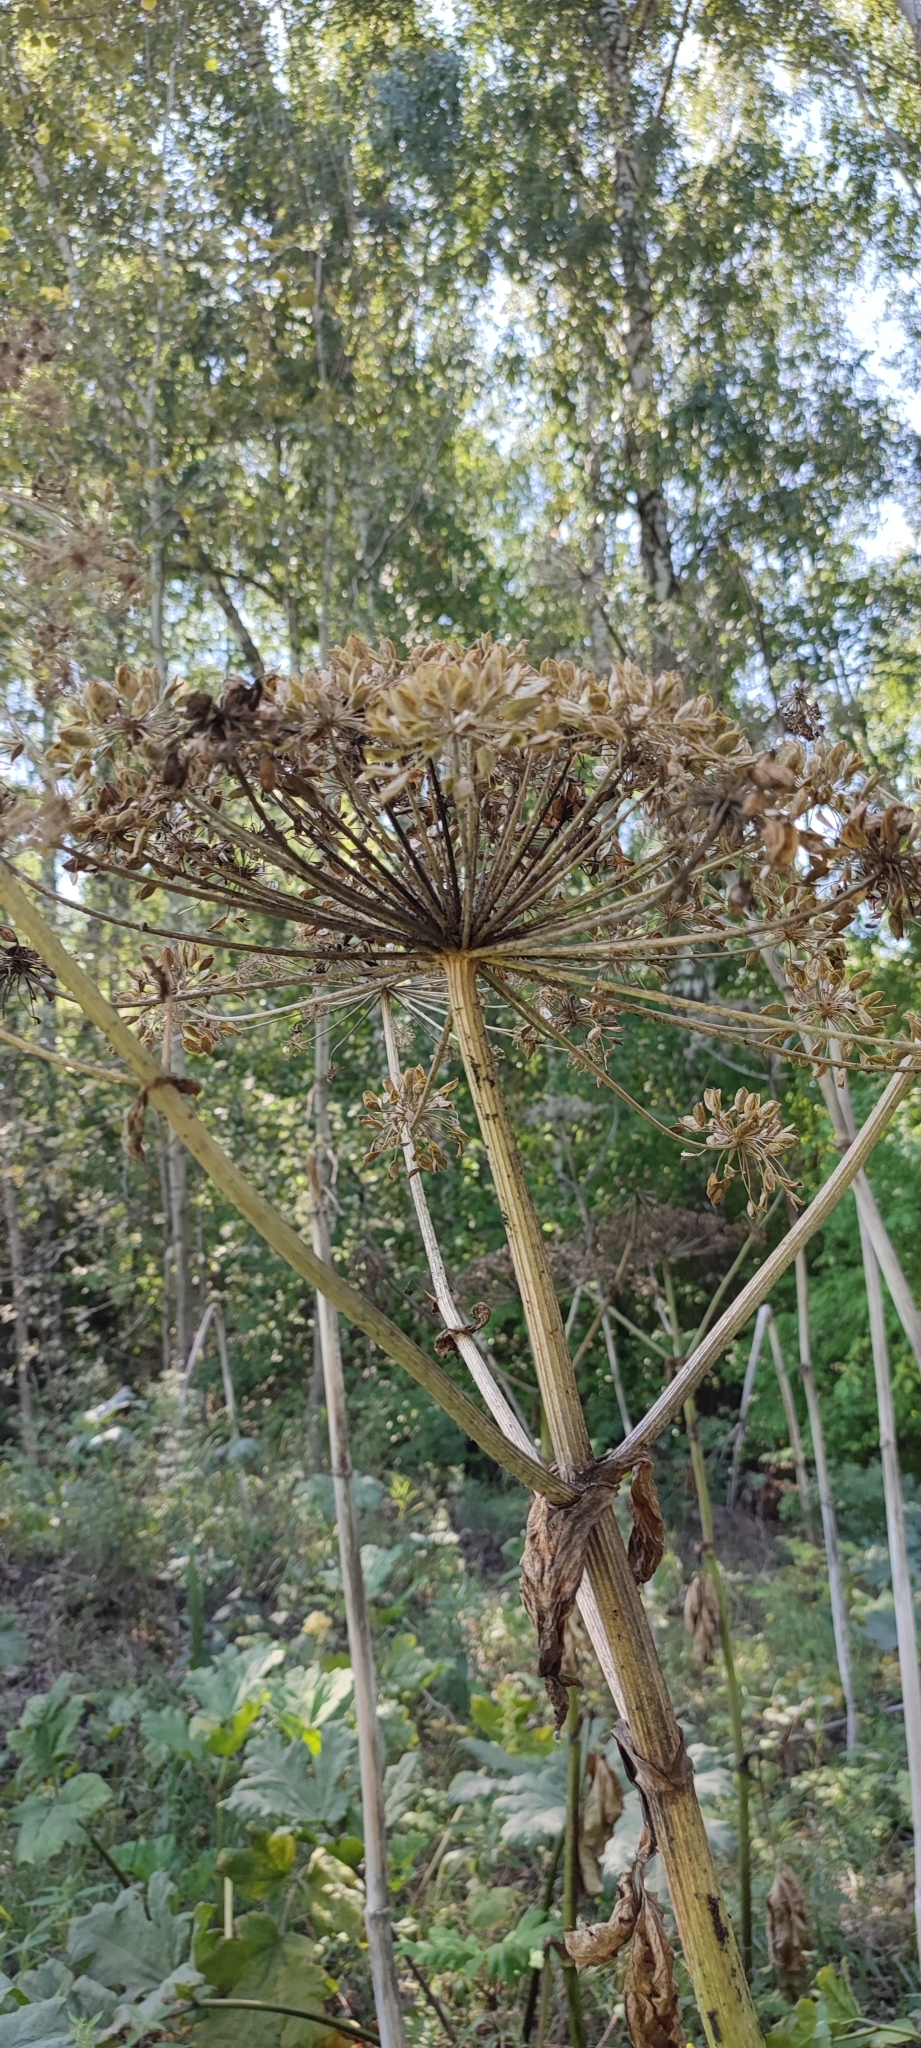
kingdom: Plantae
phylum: Tracheophyta
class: Magnoliopsida
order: Apiales
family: Apiaceae
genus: Heracleum
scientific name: Heracleum sosnowskyi
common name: Sosnowsky's hogweed
